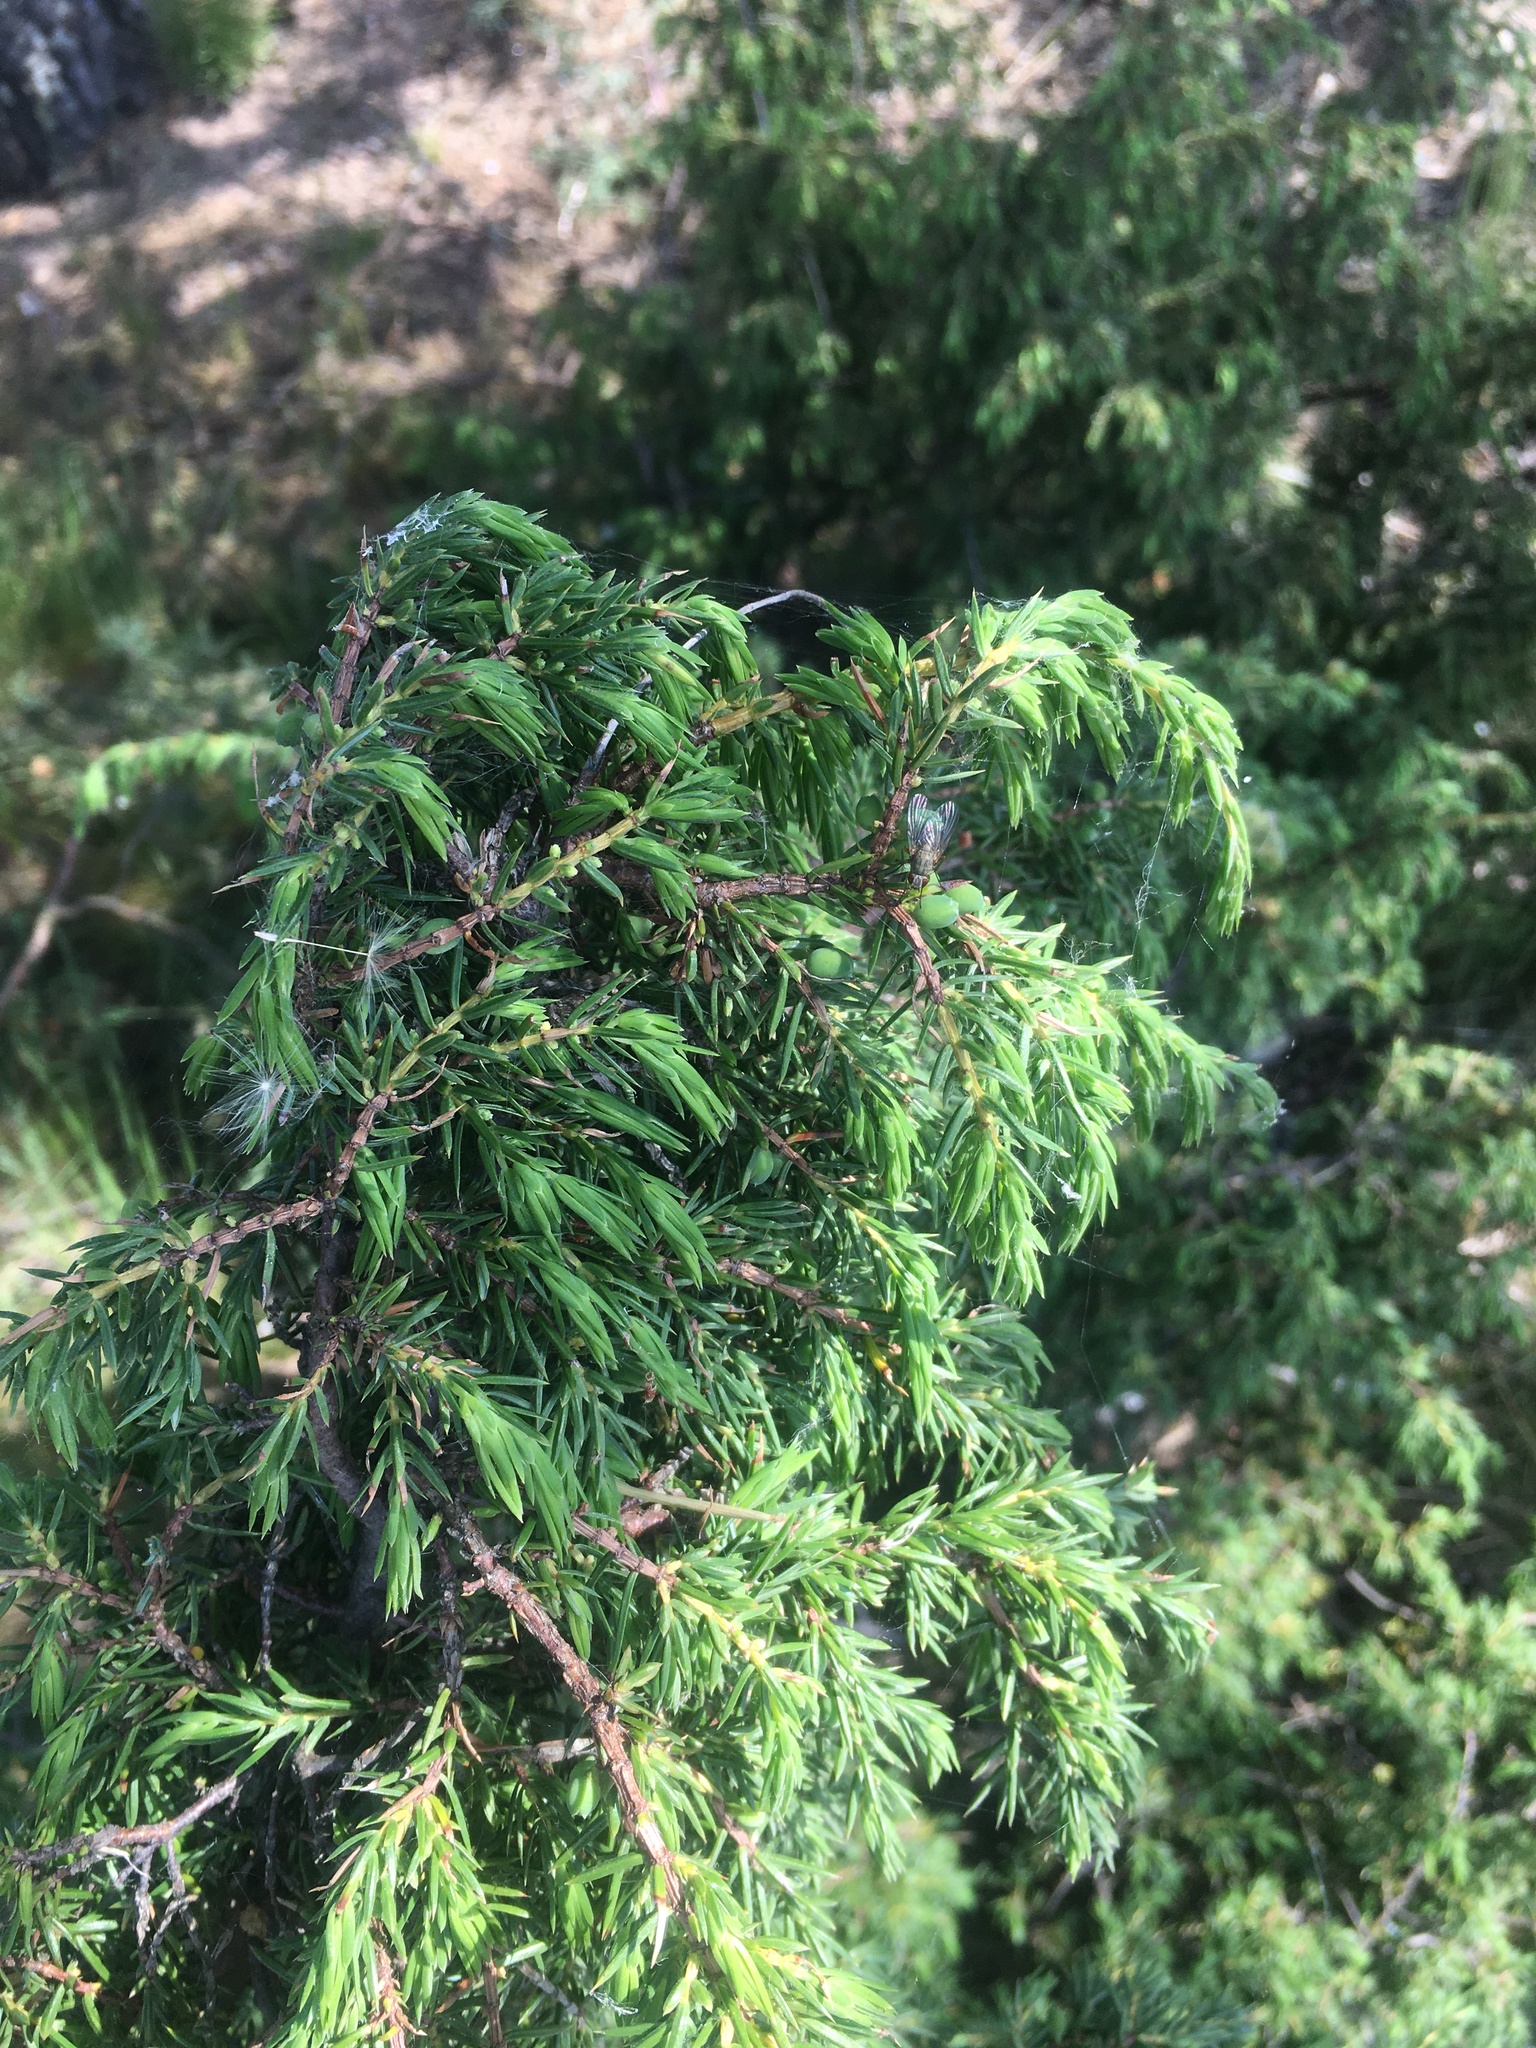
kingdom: Plantae
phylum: Tracheophyta
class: Pinopsida
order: Pinales
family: Cupressaceae
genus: Juniperus
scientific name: Juniperus communis
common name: Common juniper
